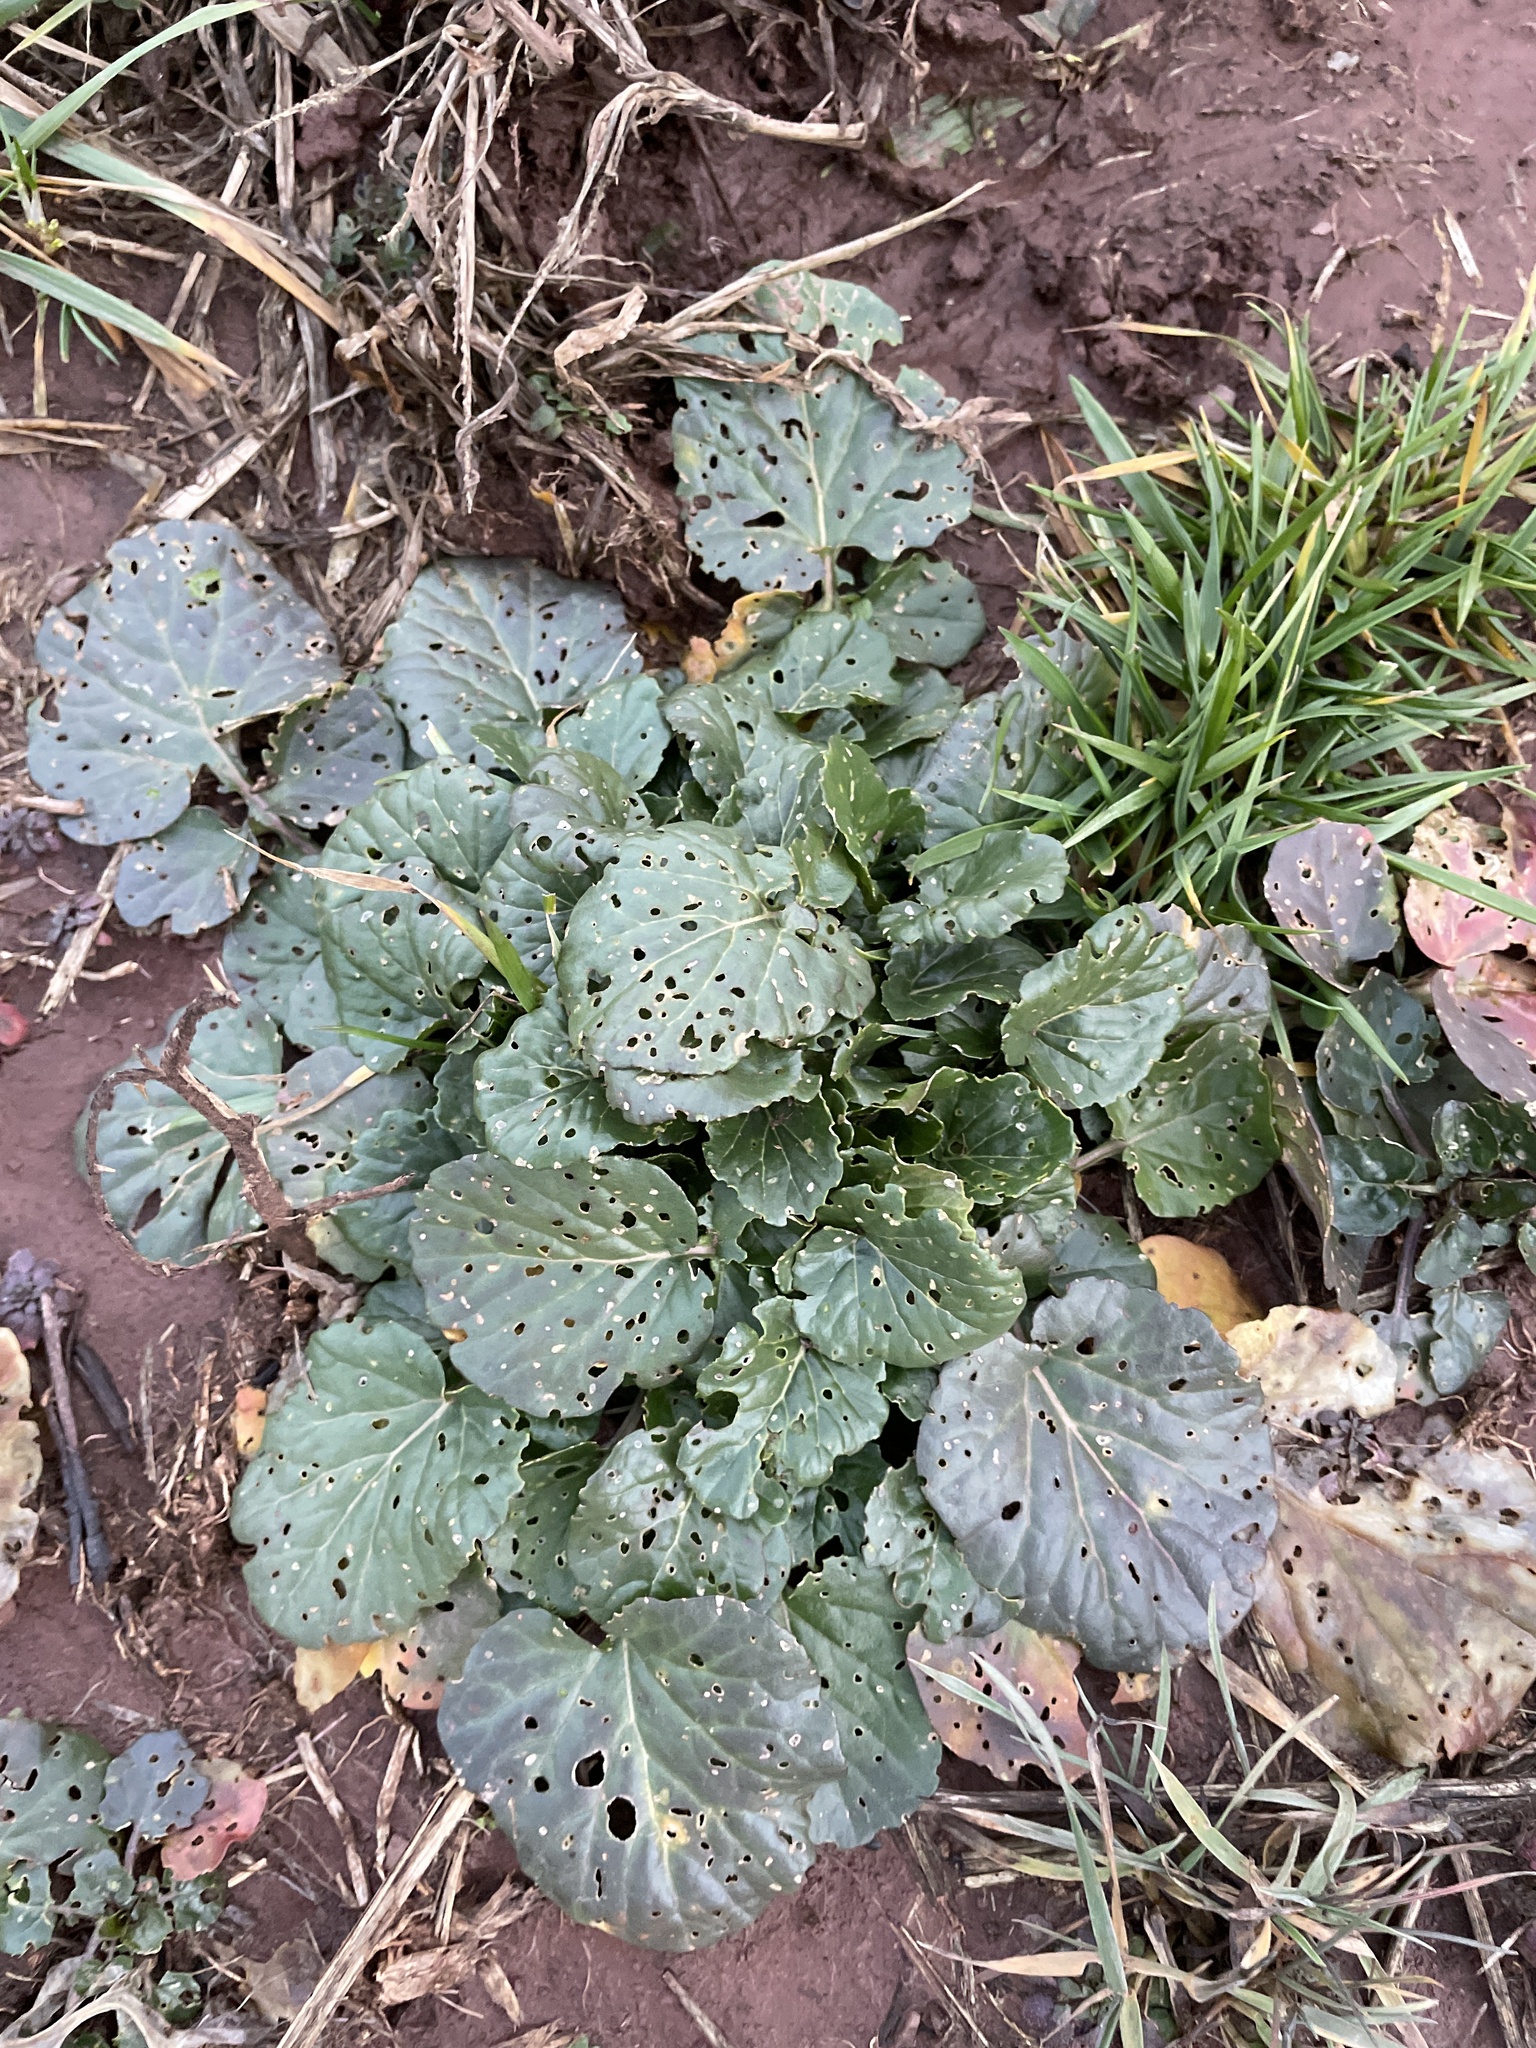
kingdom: Plantae
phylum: Tracheophyta
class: Magnoliopsida
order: Brassicales
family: Brassicaceae
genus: Barbarea
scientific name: Barbarea vulgaris
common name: Cressy-greens
